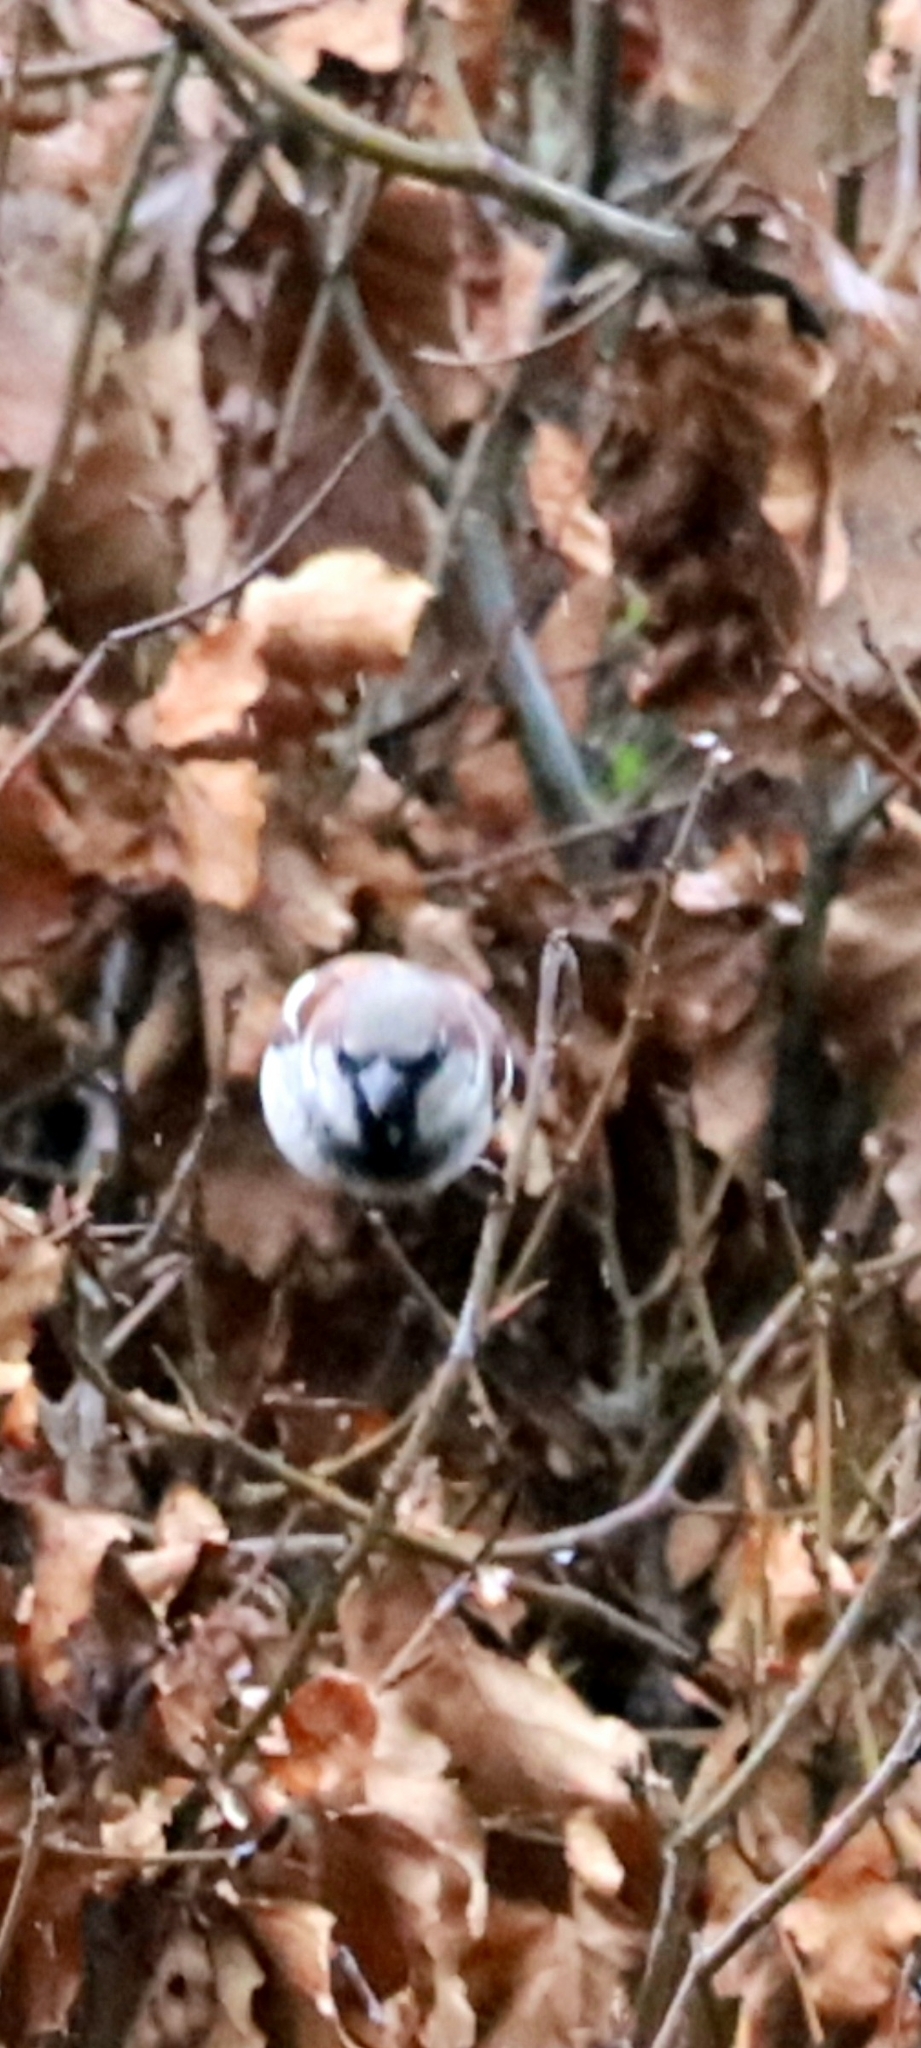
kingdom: Animalia
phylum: Chordata
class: Aves
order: Passeriformes
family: Passeridae
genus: Passer
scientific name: Passer domesticus
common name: House sparrow
